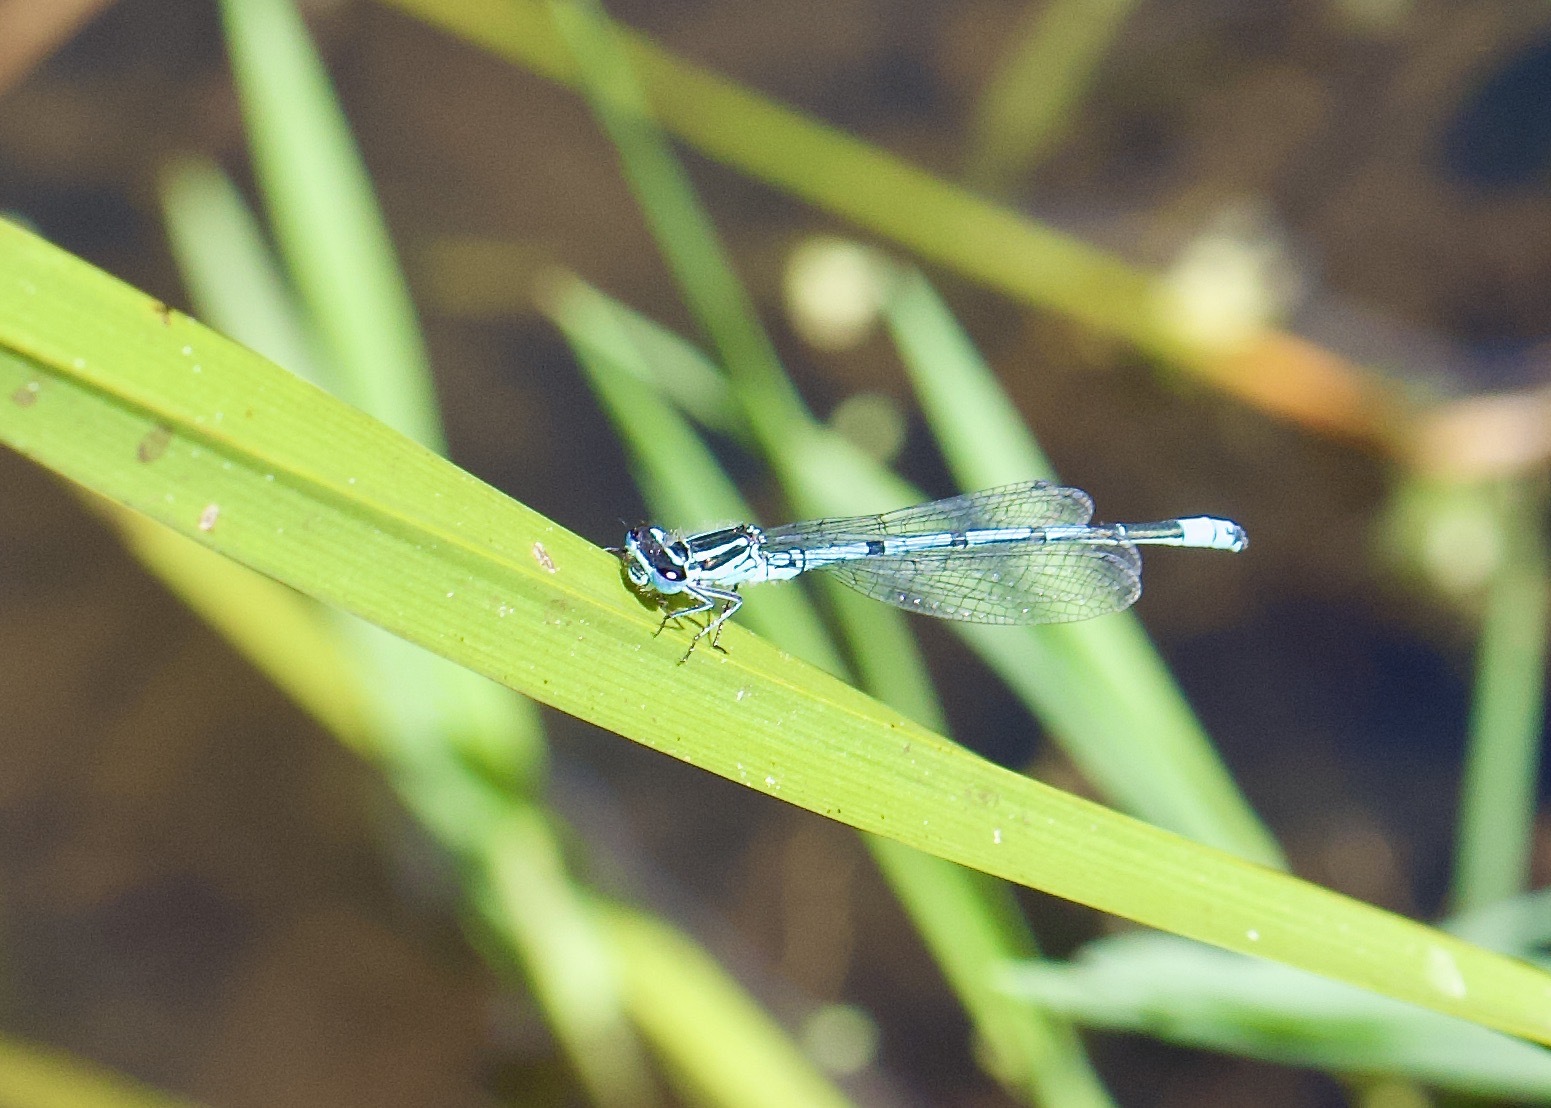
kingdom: Animalia
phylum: Arthropoda
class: Insecta
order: Odonata
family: Coenagrionidae
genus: Coenagrion
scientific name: Coenagrion puella
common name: Azure damselfly
